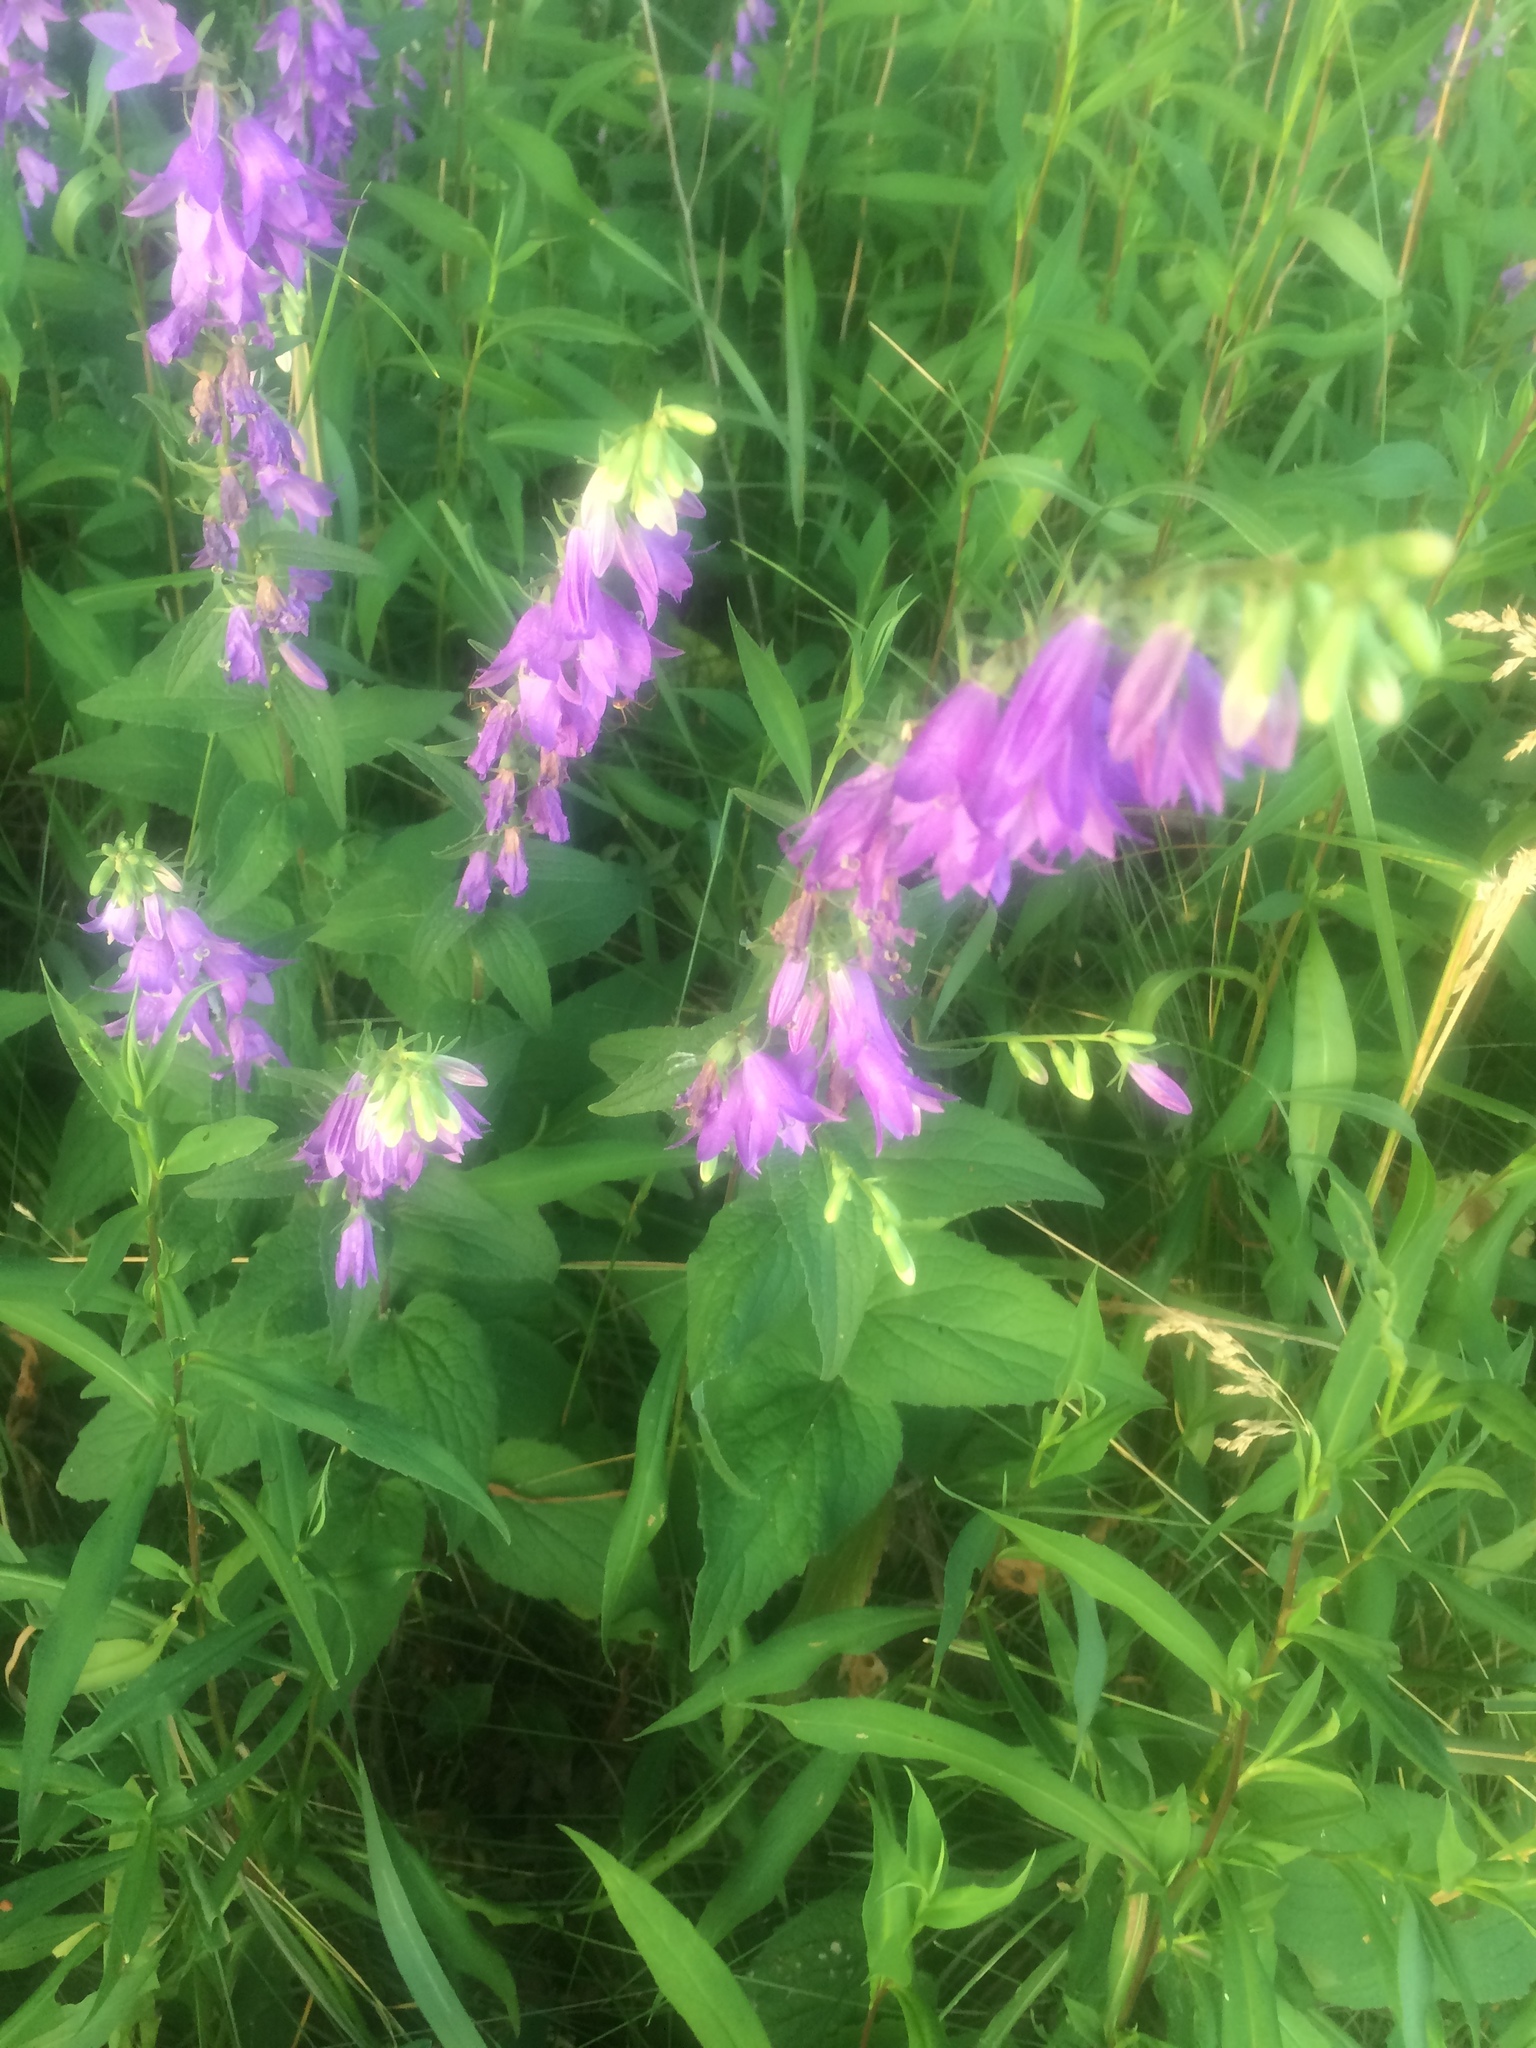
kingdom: Plantae
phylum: Tracheophyta
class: Magnoliopsida
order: Asterales
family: Campanulaceae
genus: Campanula
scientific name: Campanula rapunculoides
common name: Creeping bellflower
